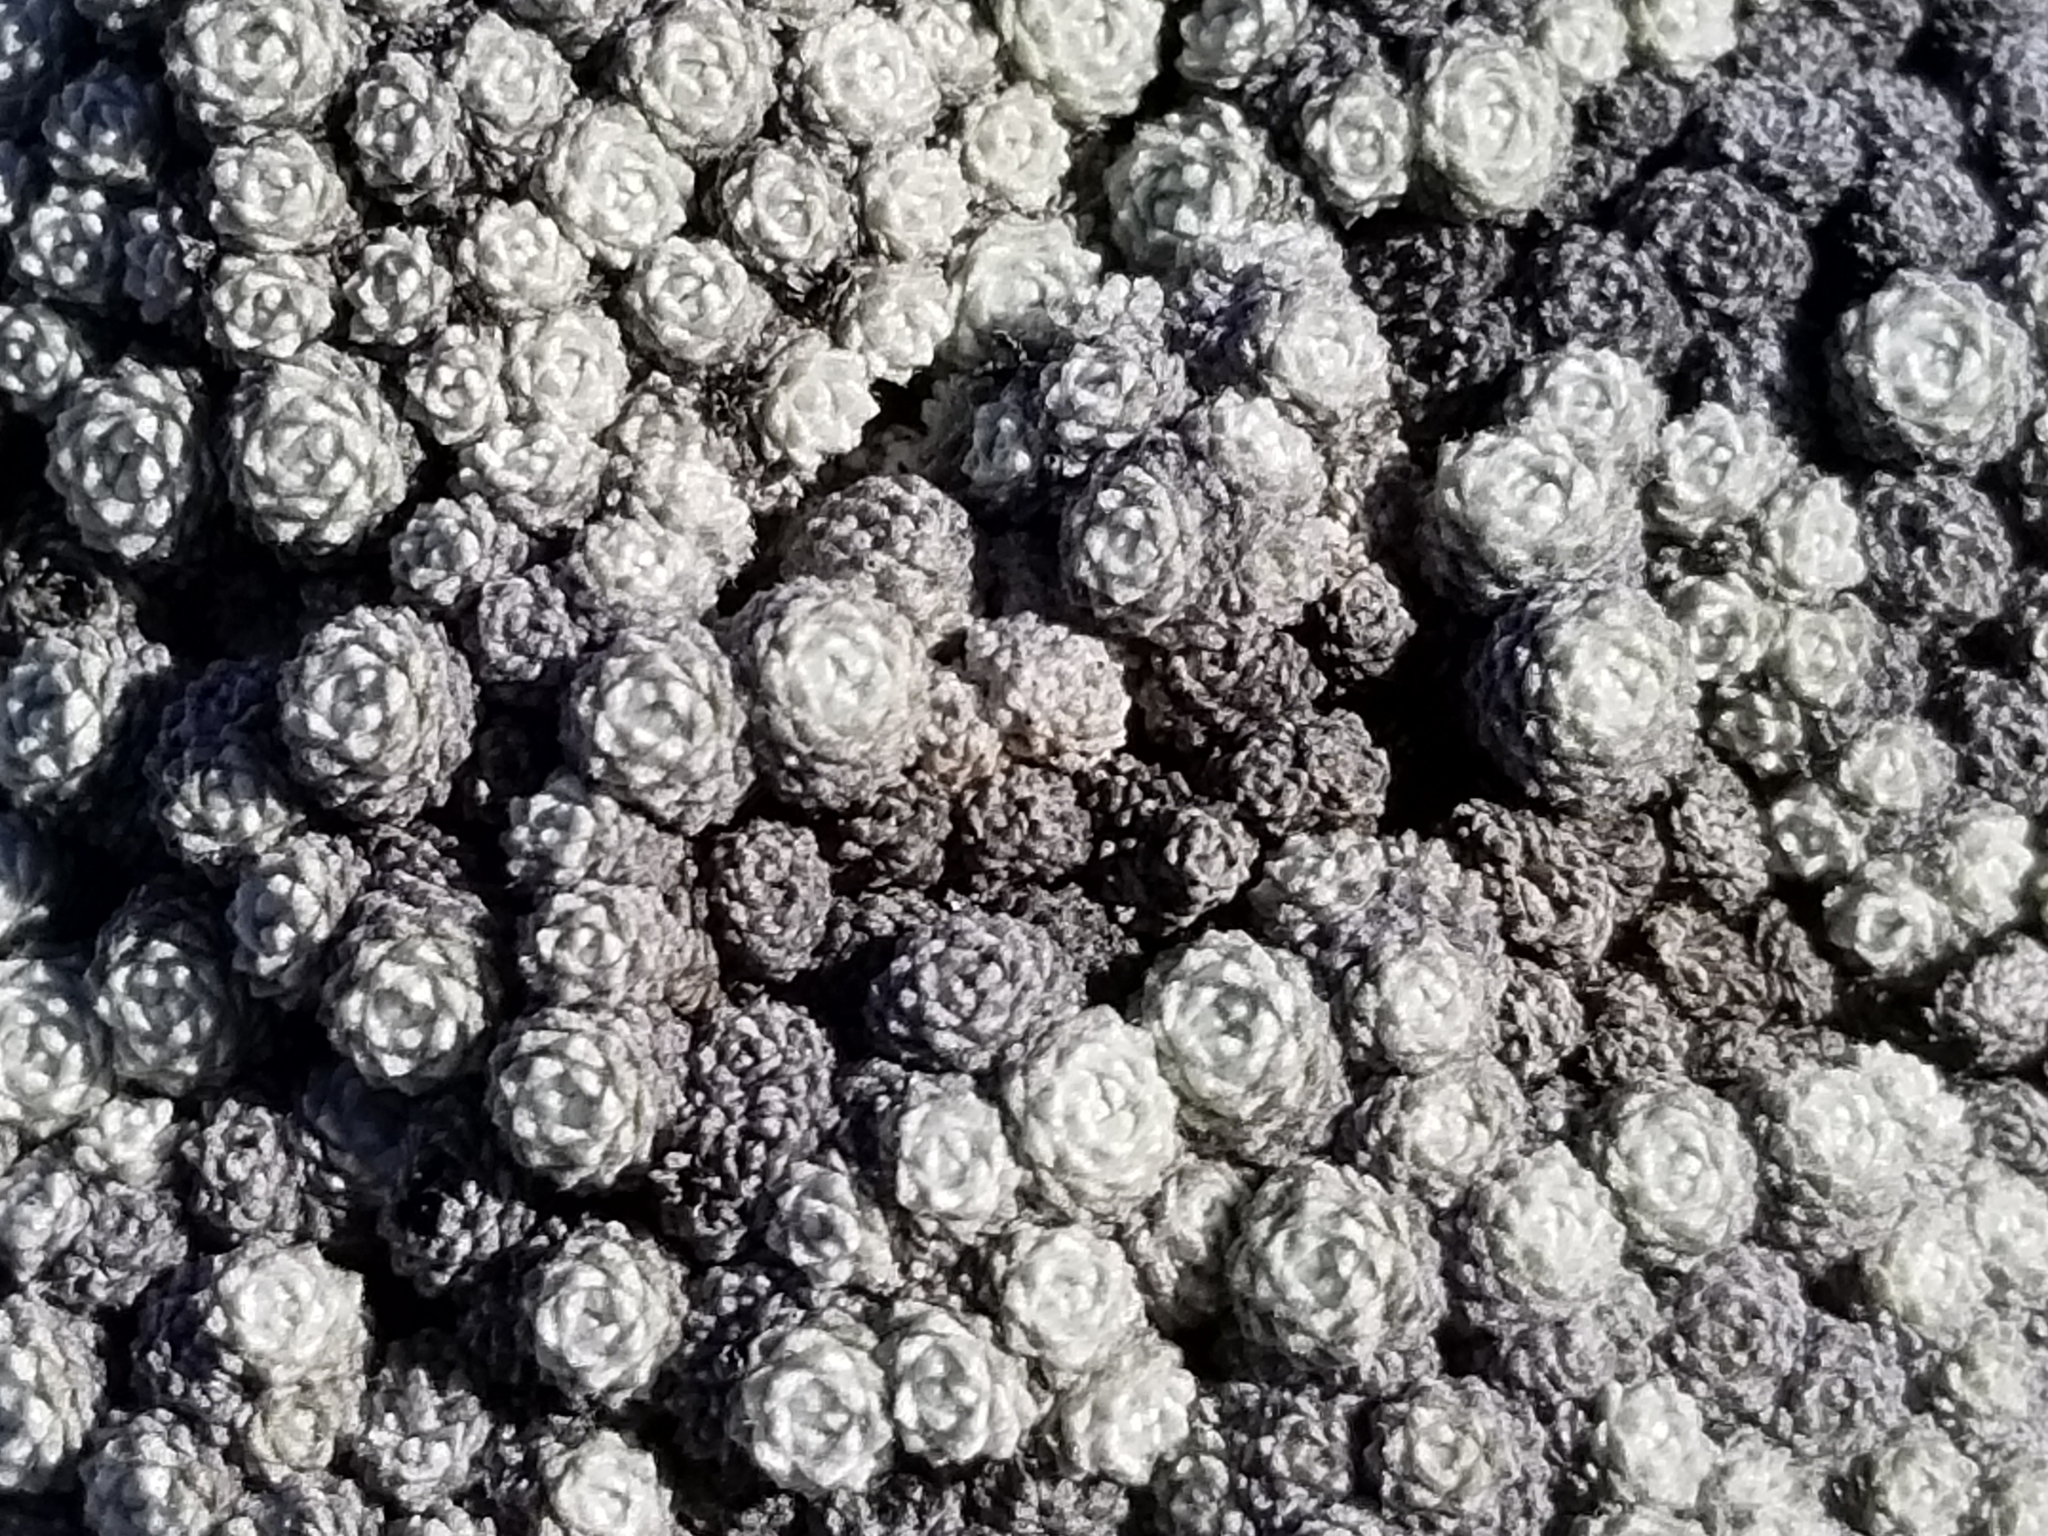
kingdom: Plantae
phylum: Tracheophyta
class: Magnoliopsida
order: Asterales
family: Asteraceae
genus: Raoulia
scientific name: Raoulia bryoides
